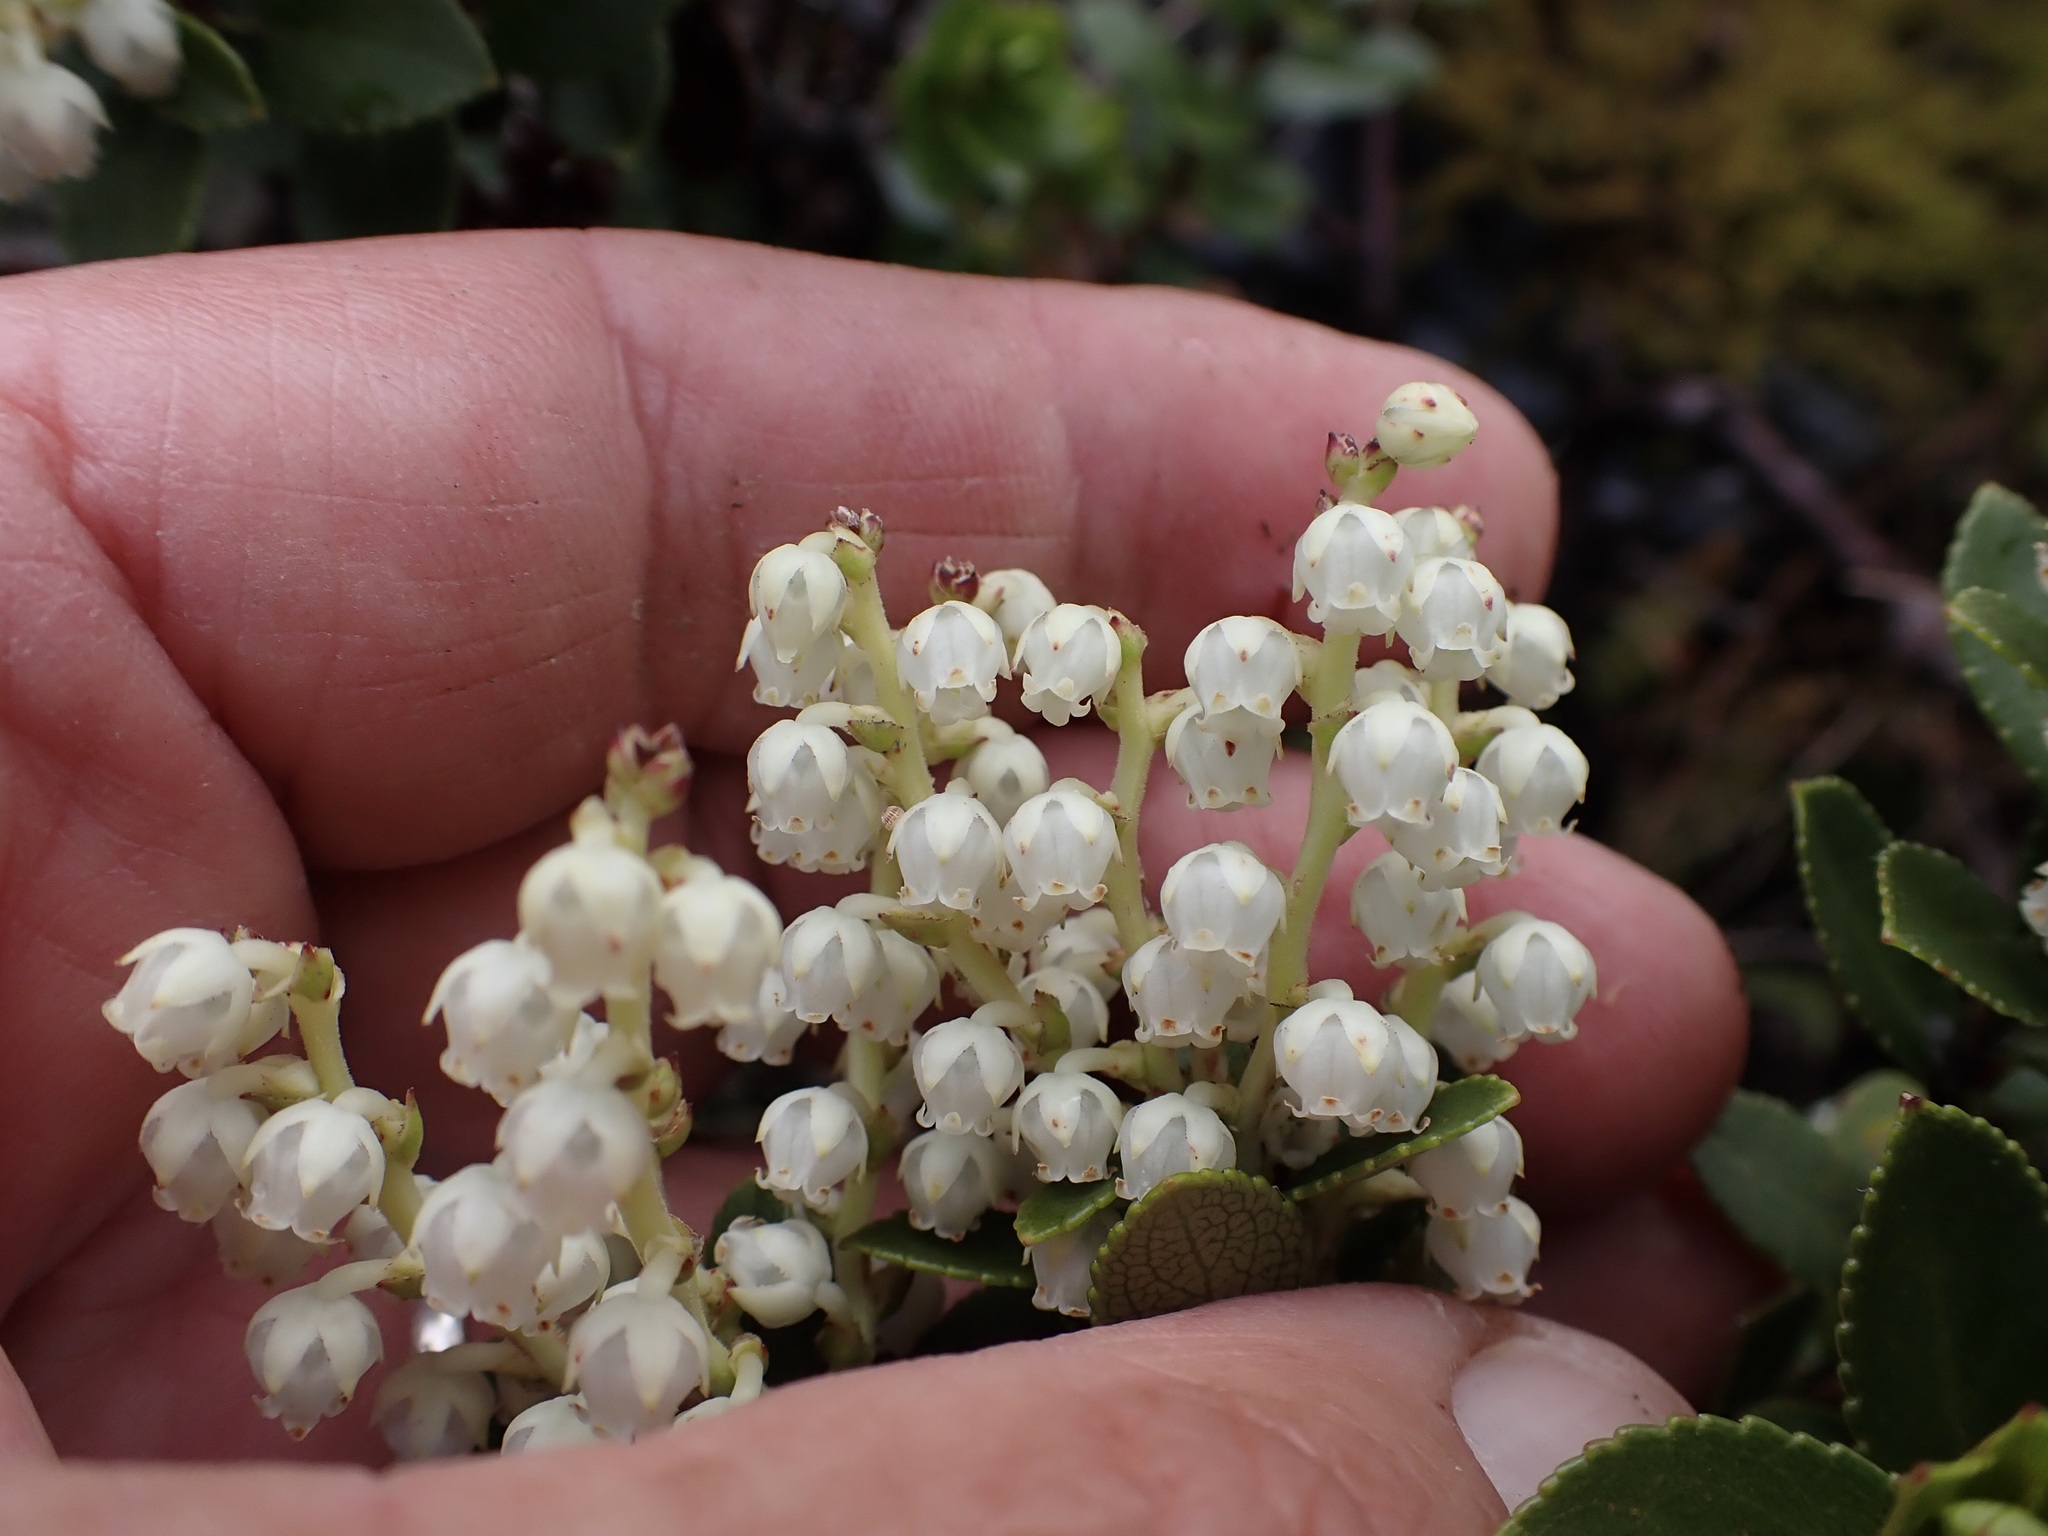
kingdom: Plantae
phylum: Tracheophyta
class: Magnoliopsida
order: Ericales
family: Ericaceae
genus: Gaultheria
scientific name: Gaultheria crassa
